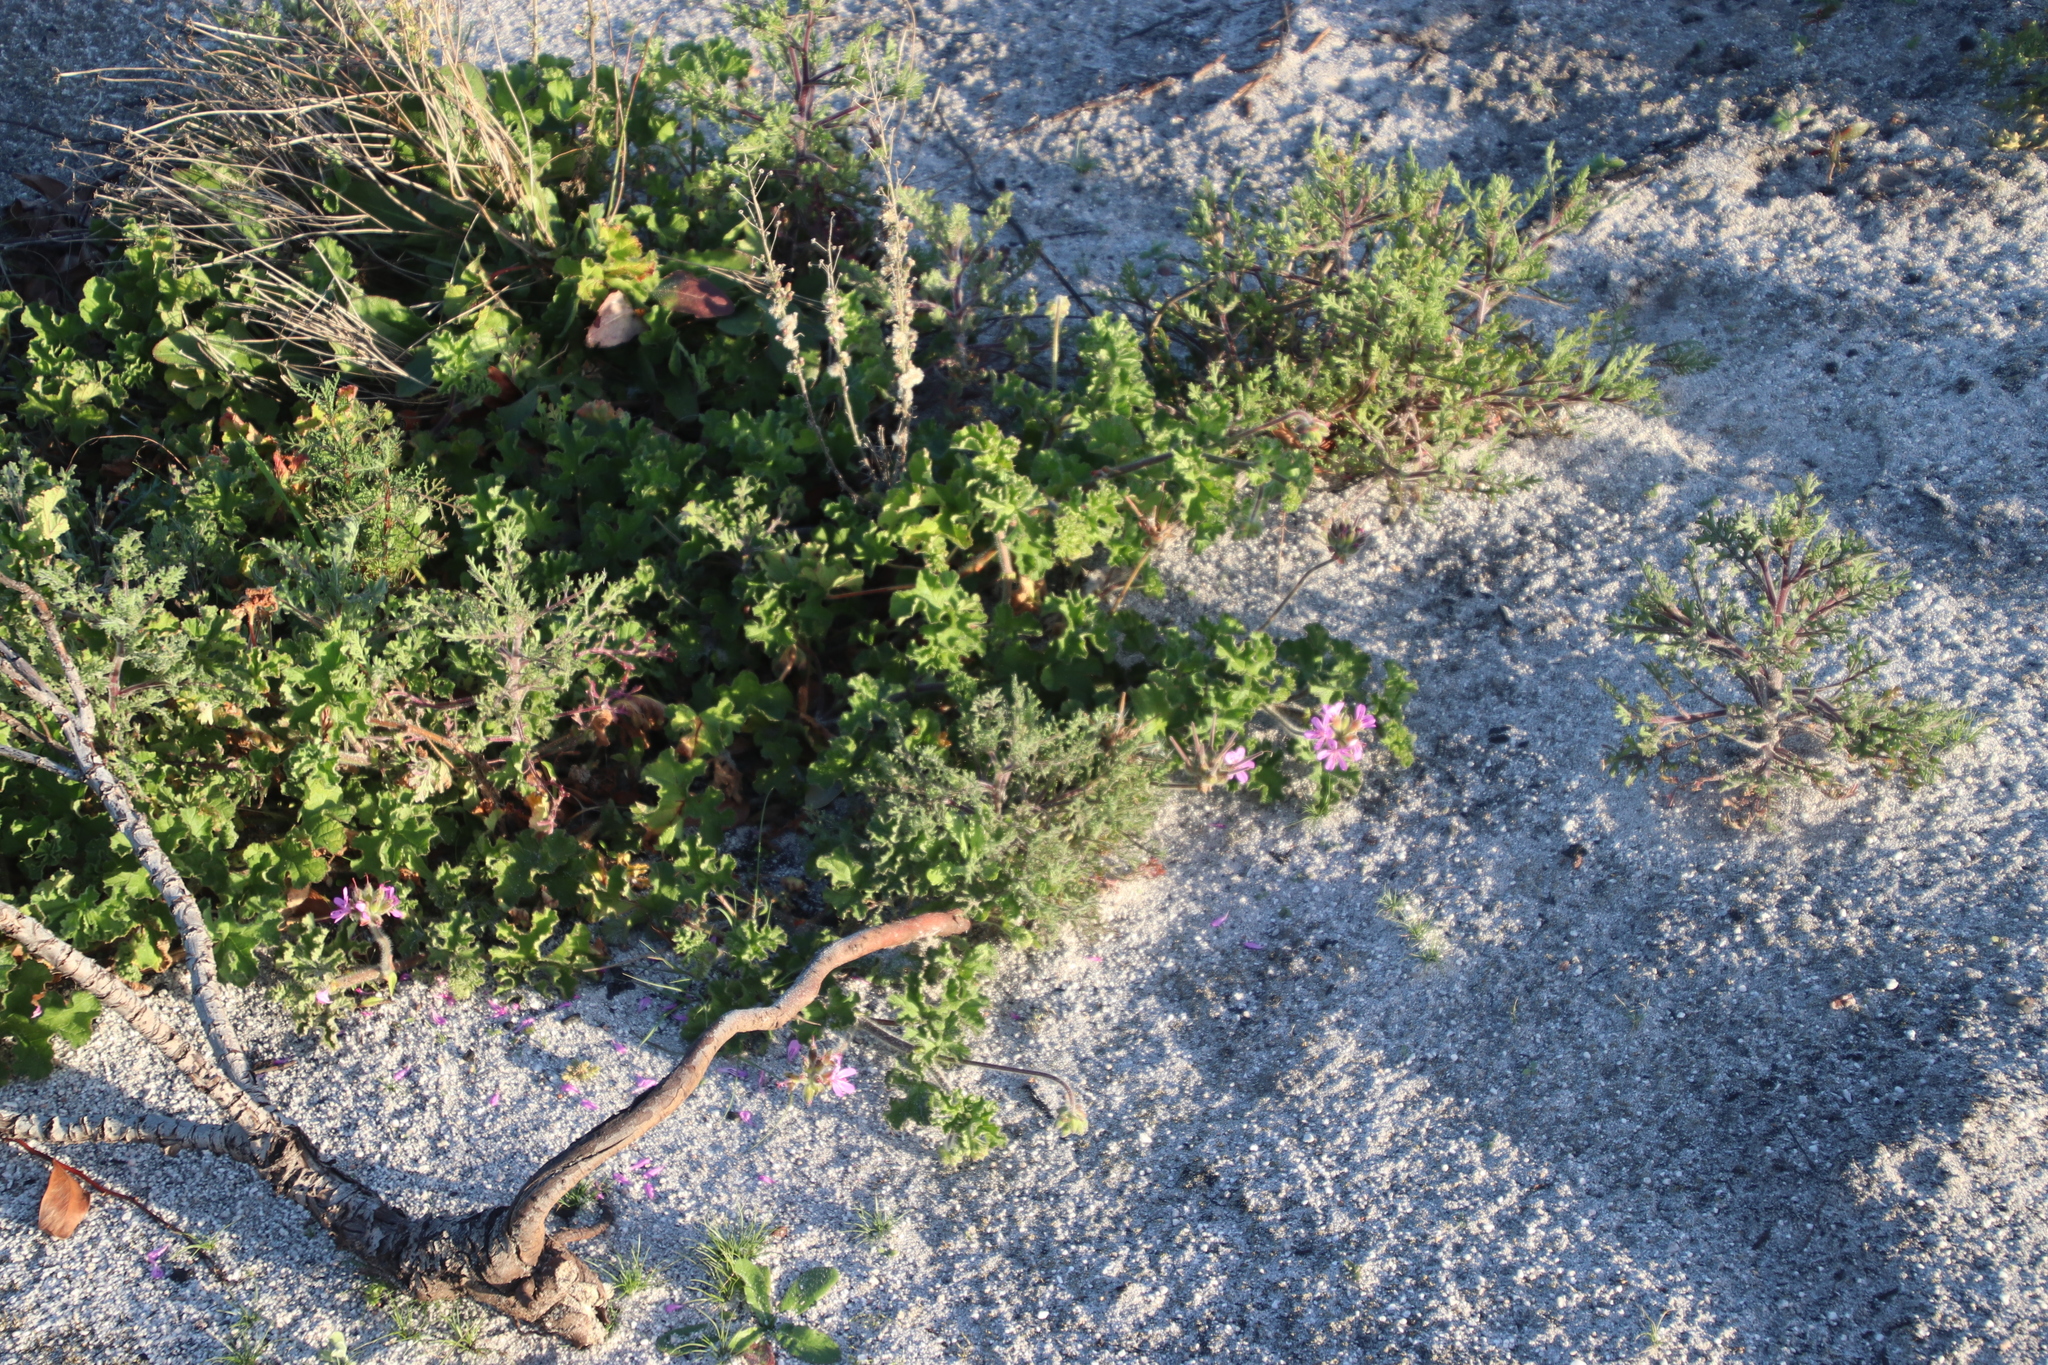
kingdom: Plantae
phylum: Tracheophyta
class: Magnoliopsida
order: Geraniales
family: Geraniaceae
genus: Pelargonium
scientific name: Pelargonium capitatum
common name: Rose scented geranium
